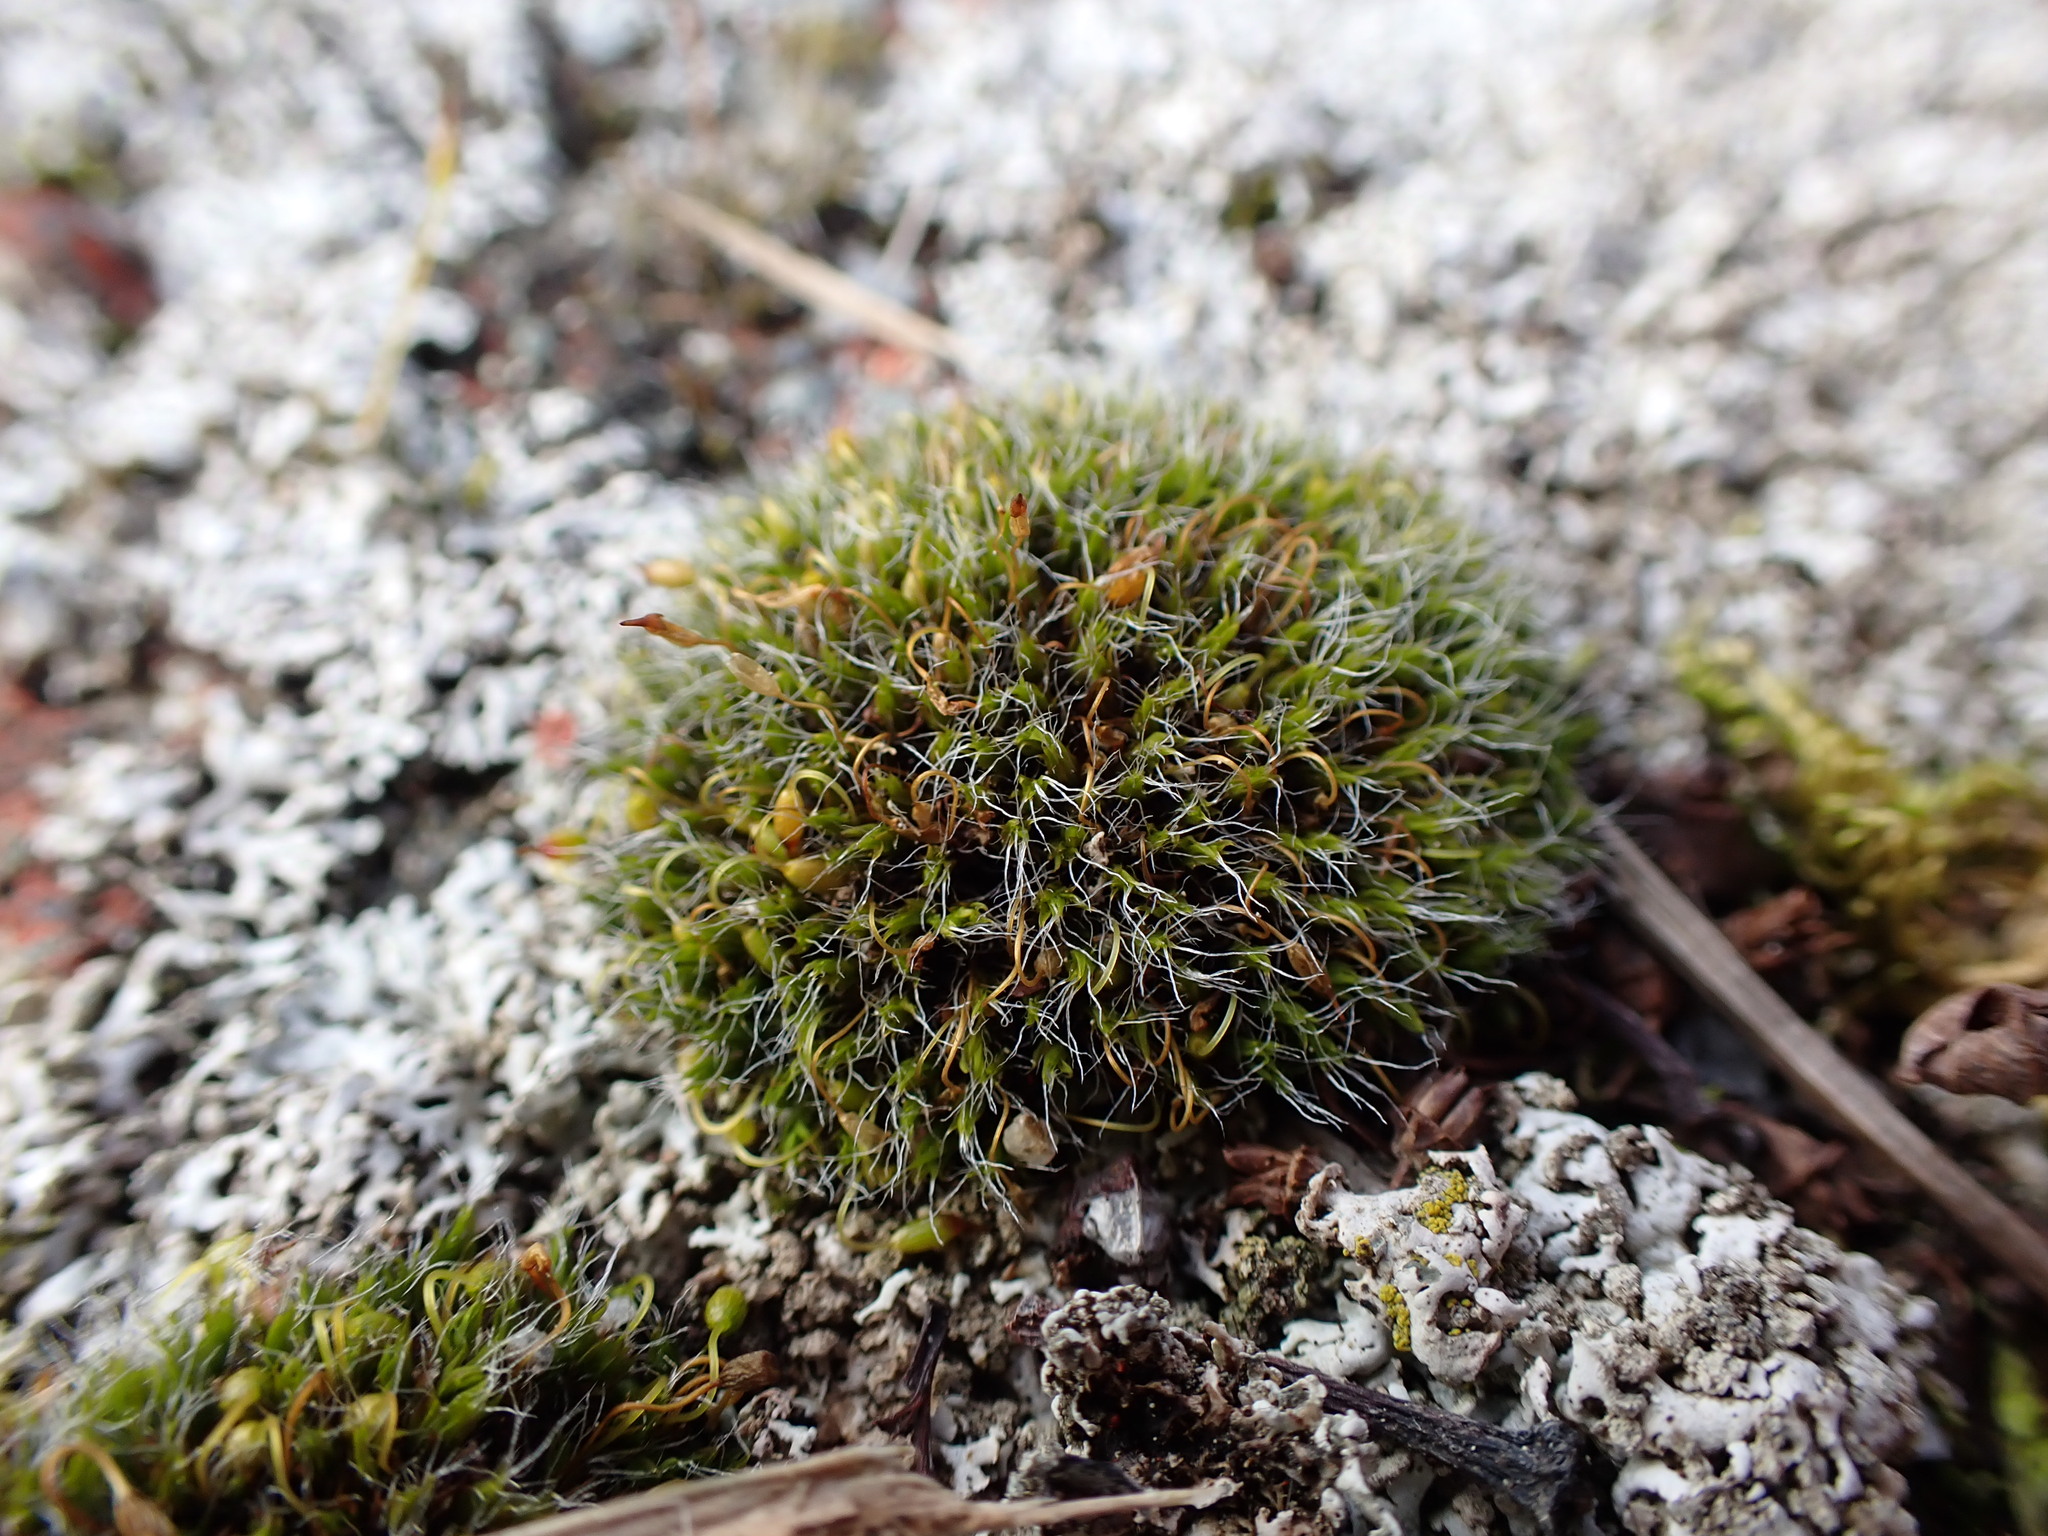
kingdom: Plantae
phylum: Bryophyta
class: Bryopsida
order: Grimmiales
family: Grimmiaceae
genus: Grimmia
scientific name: Grimmia pulvinata
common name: Grey-cushioned grimmia
